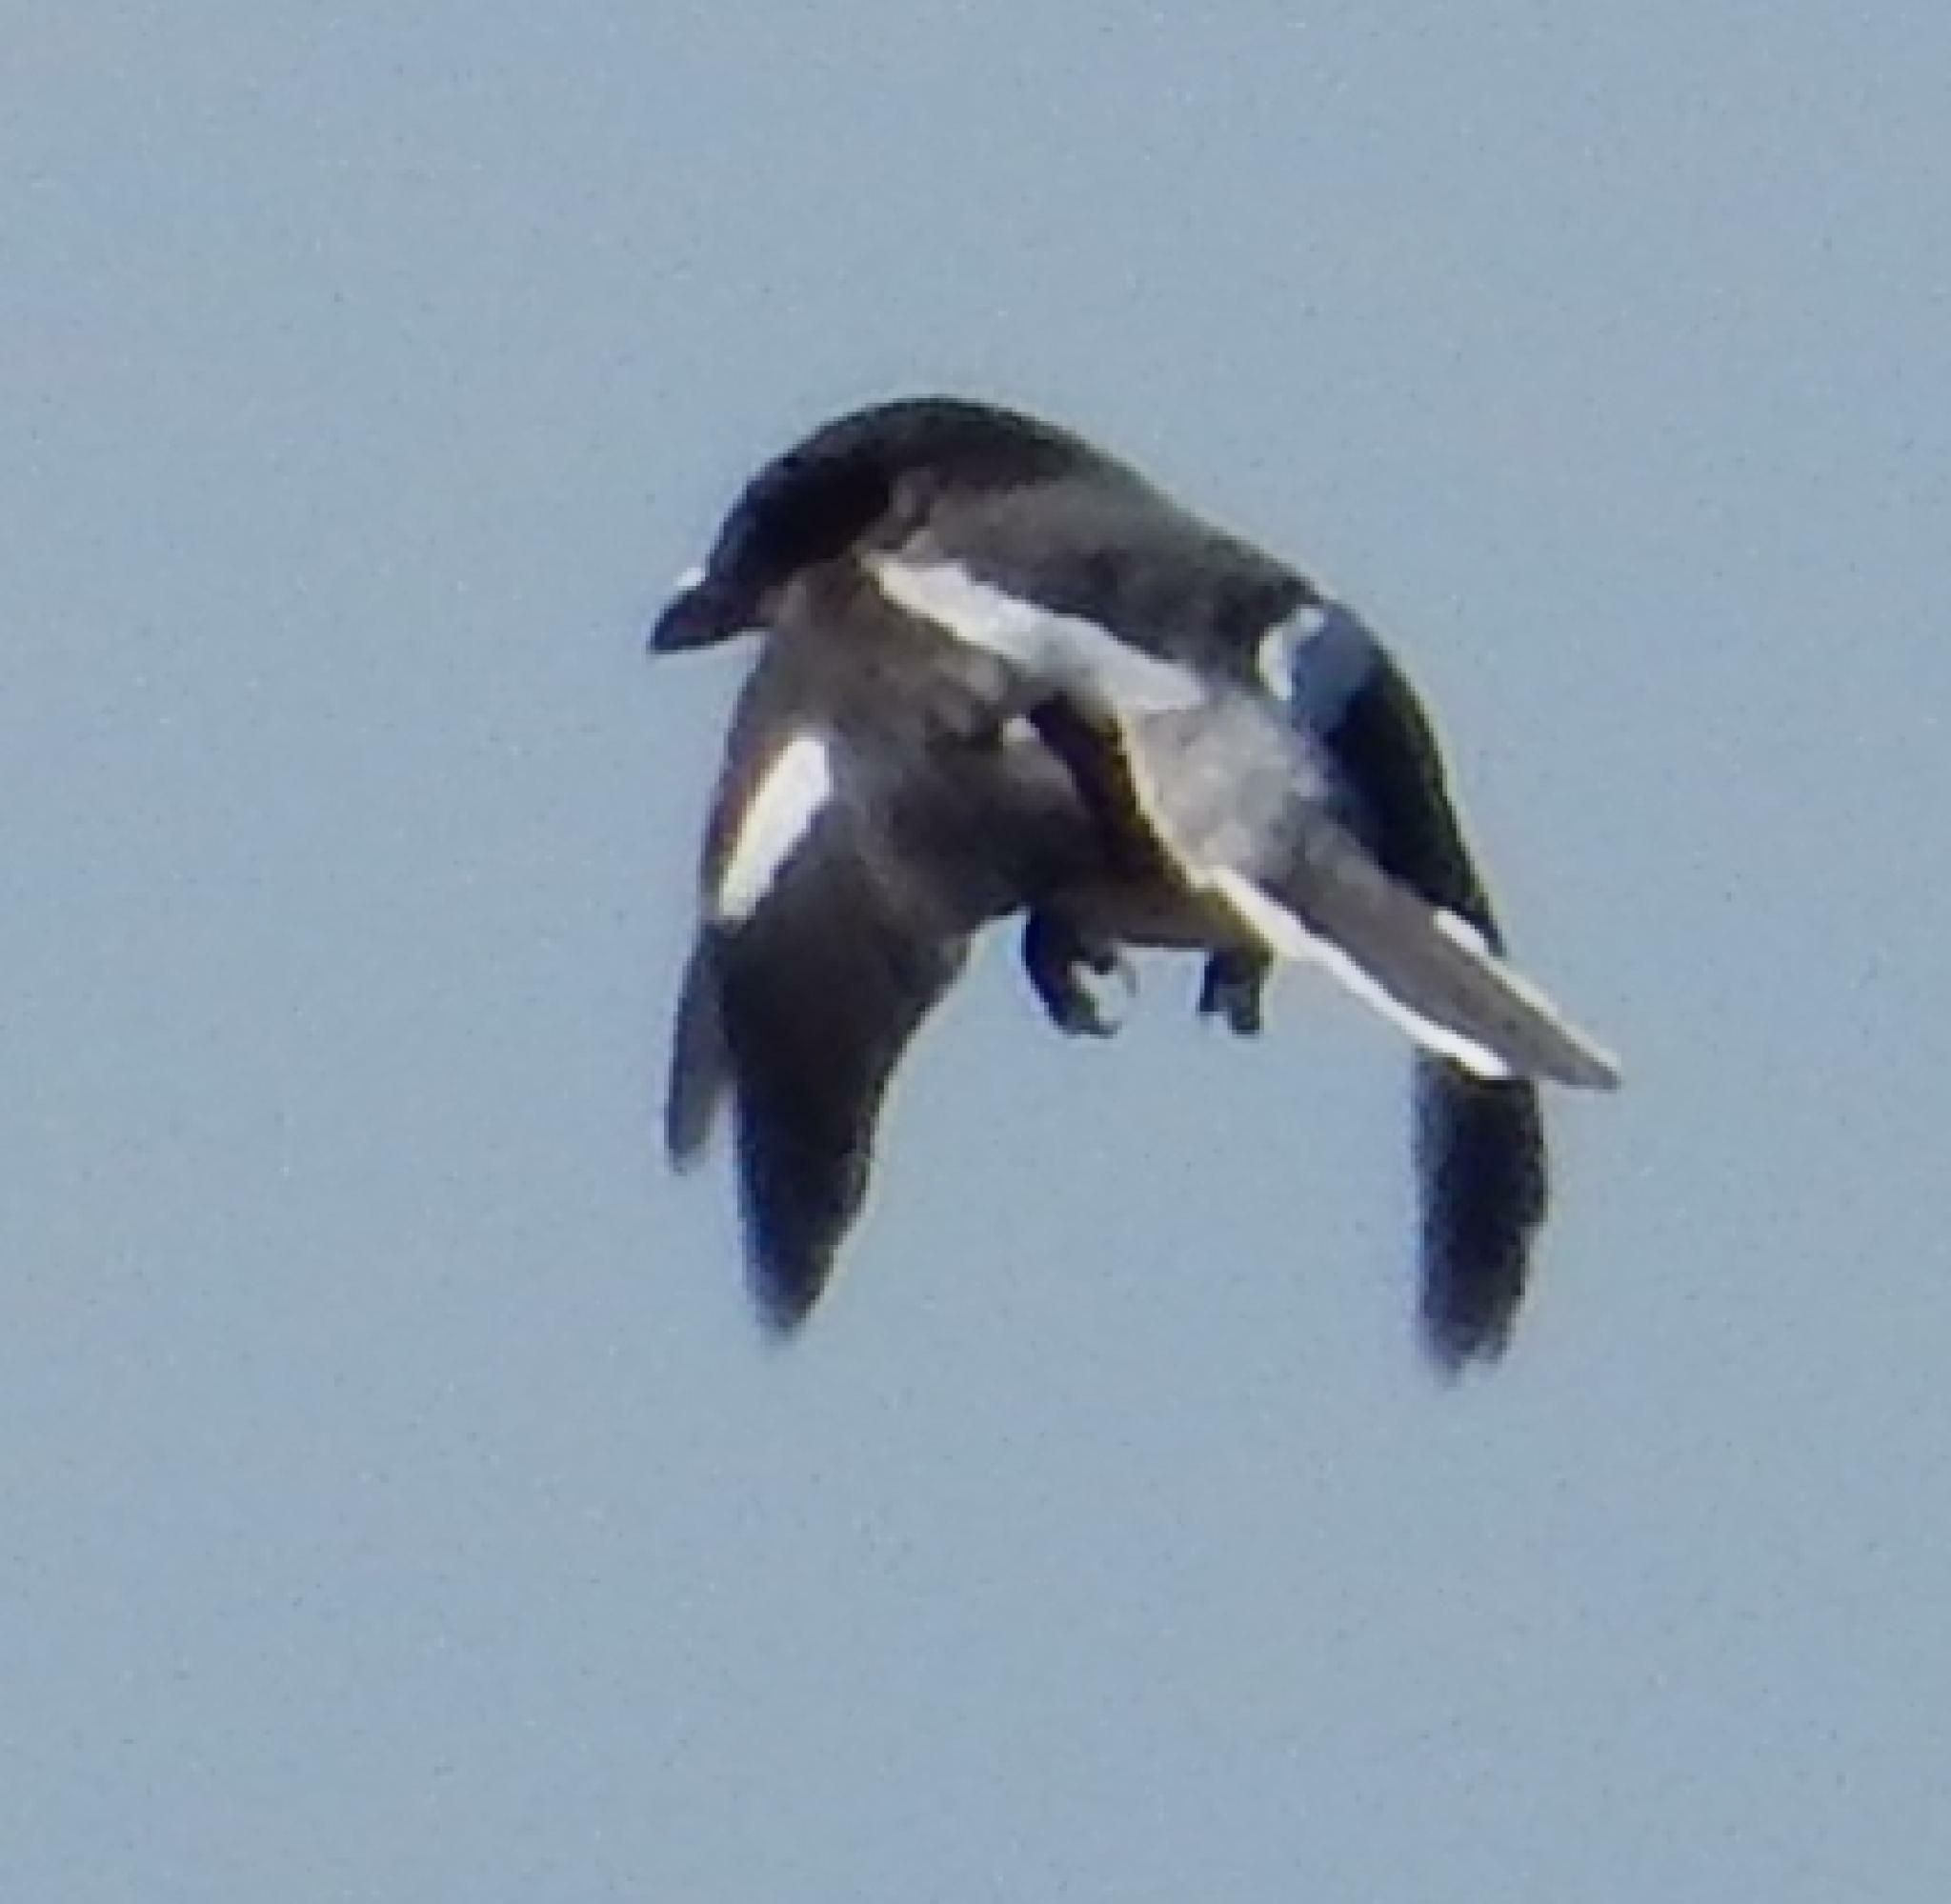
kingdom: Animalia
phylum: Chordata
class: Aves
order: Passeriformes
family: Laniidae
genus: Lanius
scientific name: Lanius collaris
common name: Southern fiscal
